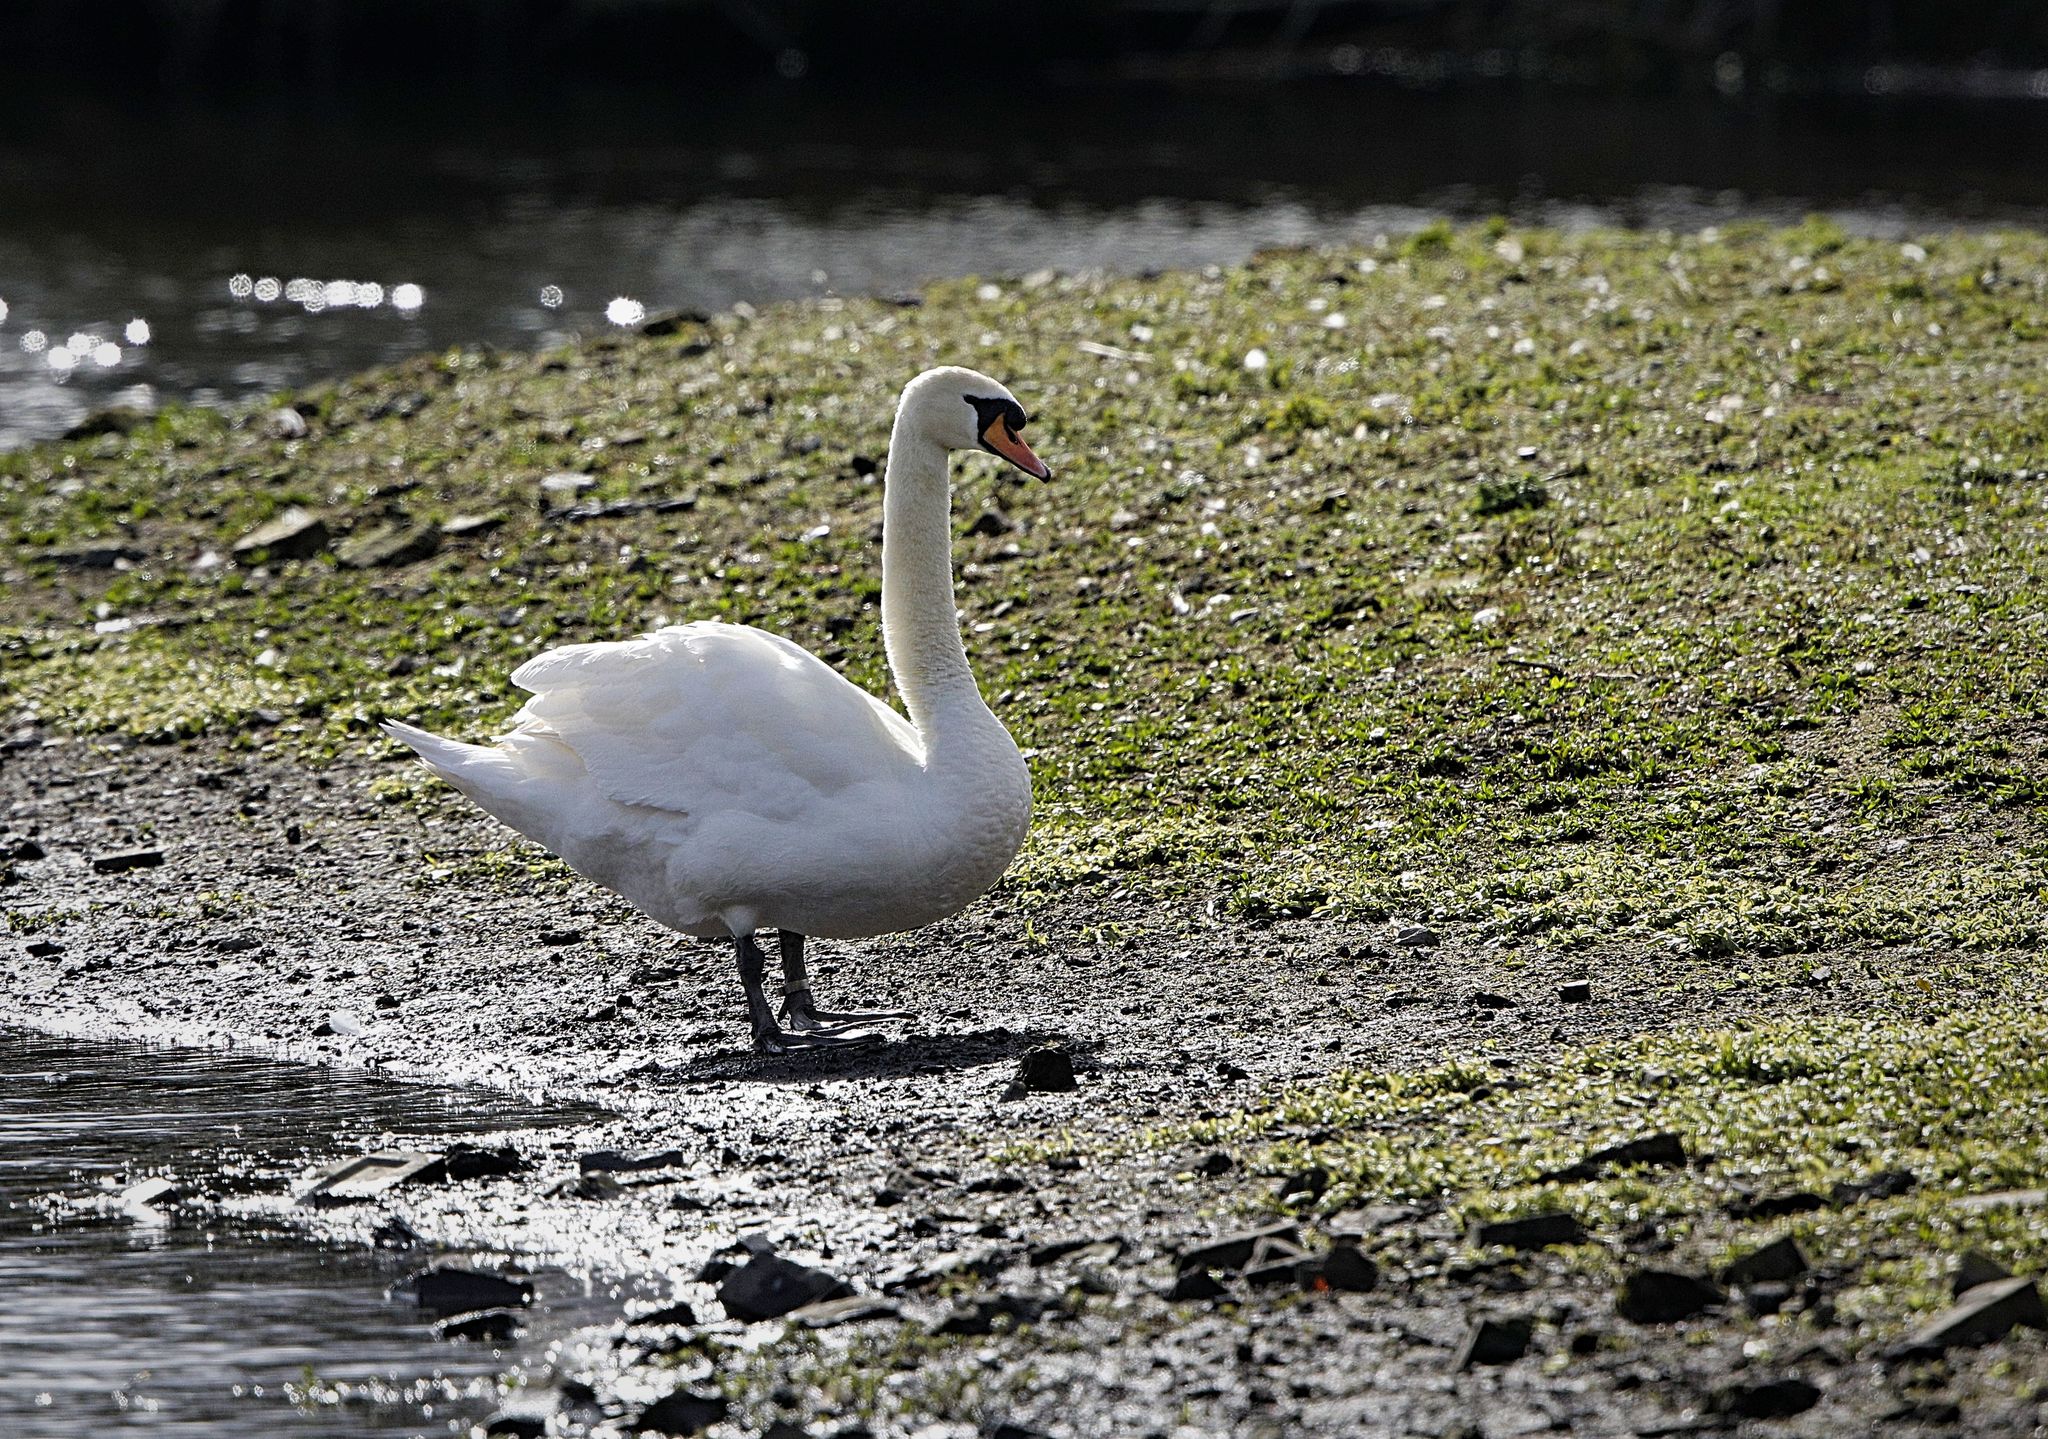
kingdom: Animalia
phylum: Chordata
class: Aves
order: Anseriformes
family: Anatidae
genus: Cygnus
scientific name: Cygnus olor
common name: Mute swan
